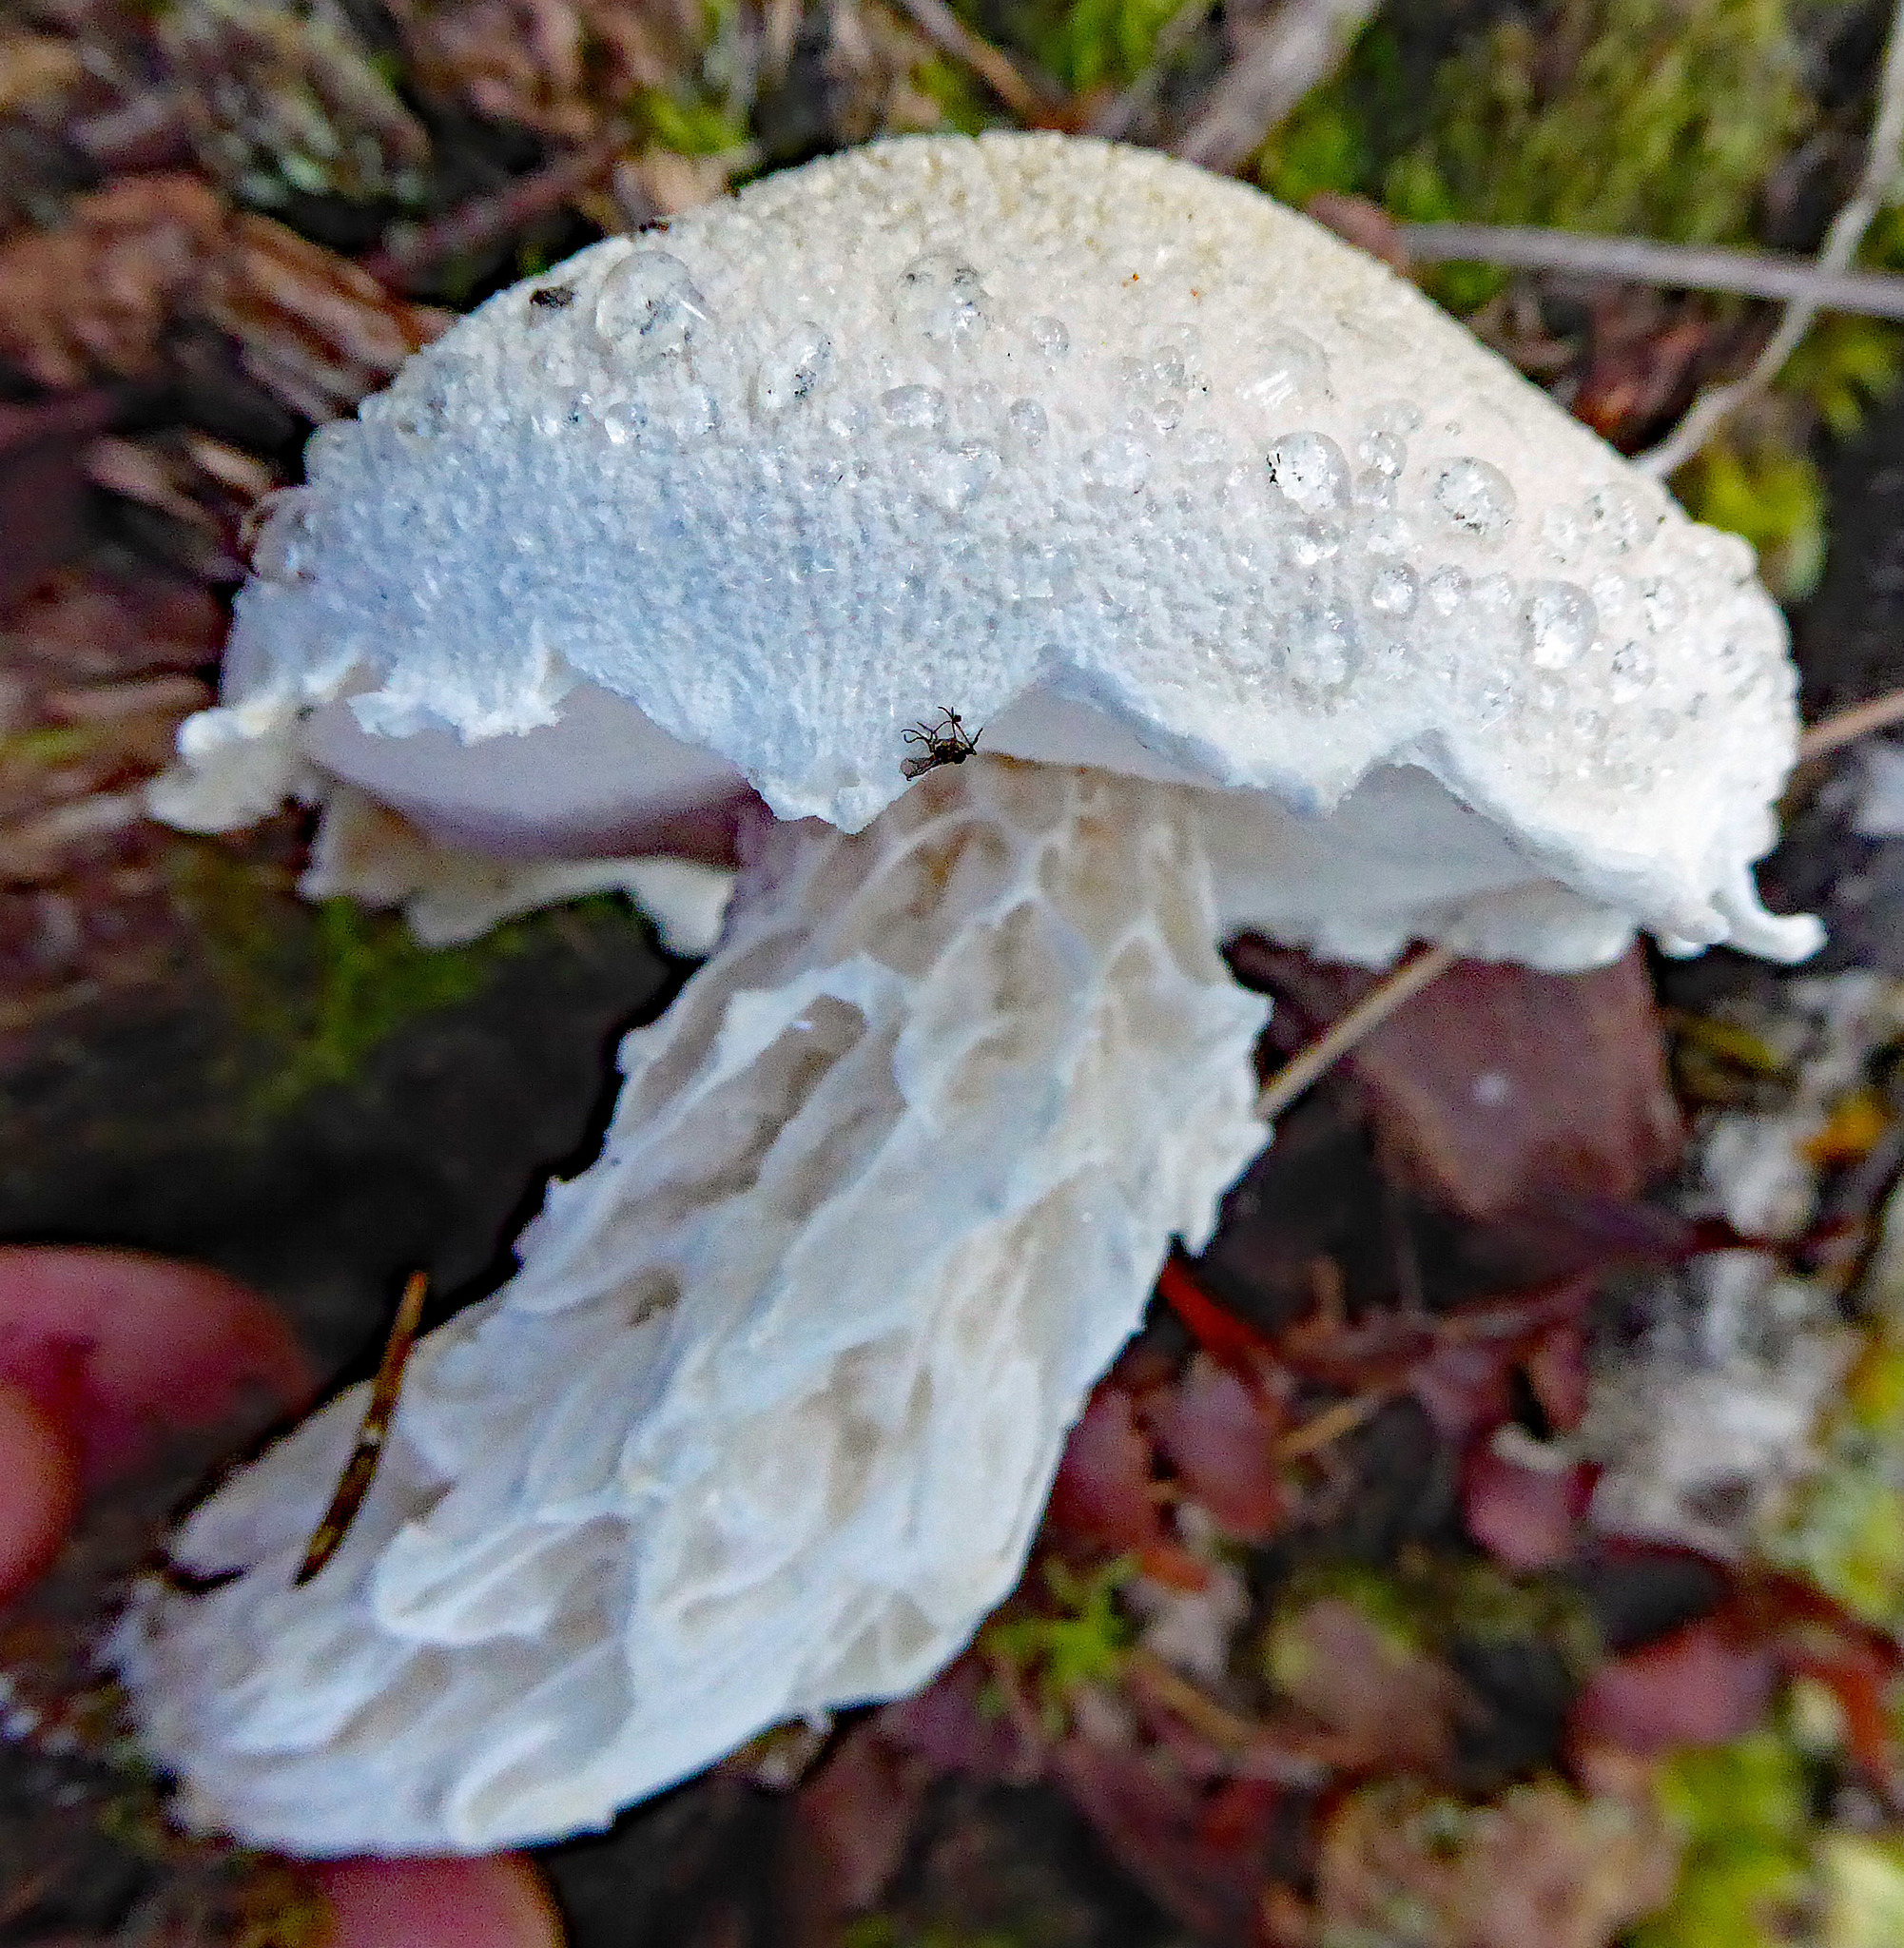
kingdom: Fungi
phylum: Basidiomycota
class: Agaricomycetes
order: Boletales
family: Boletaceae
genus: Fistulinella
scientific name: Fistulinella nivea
